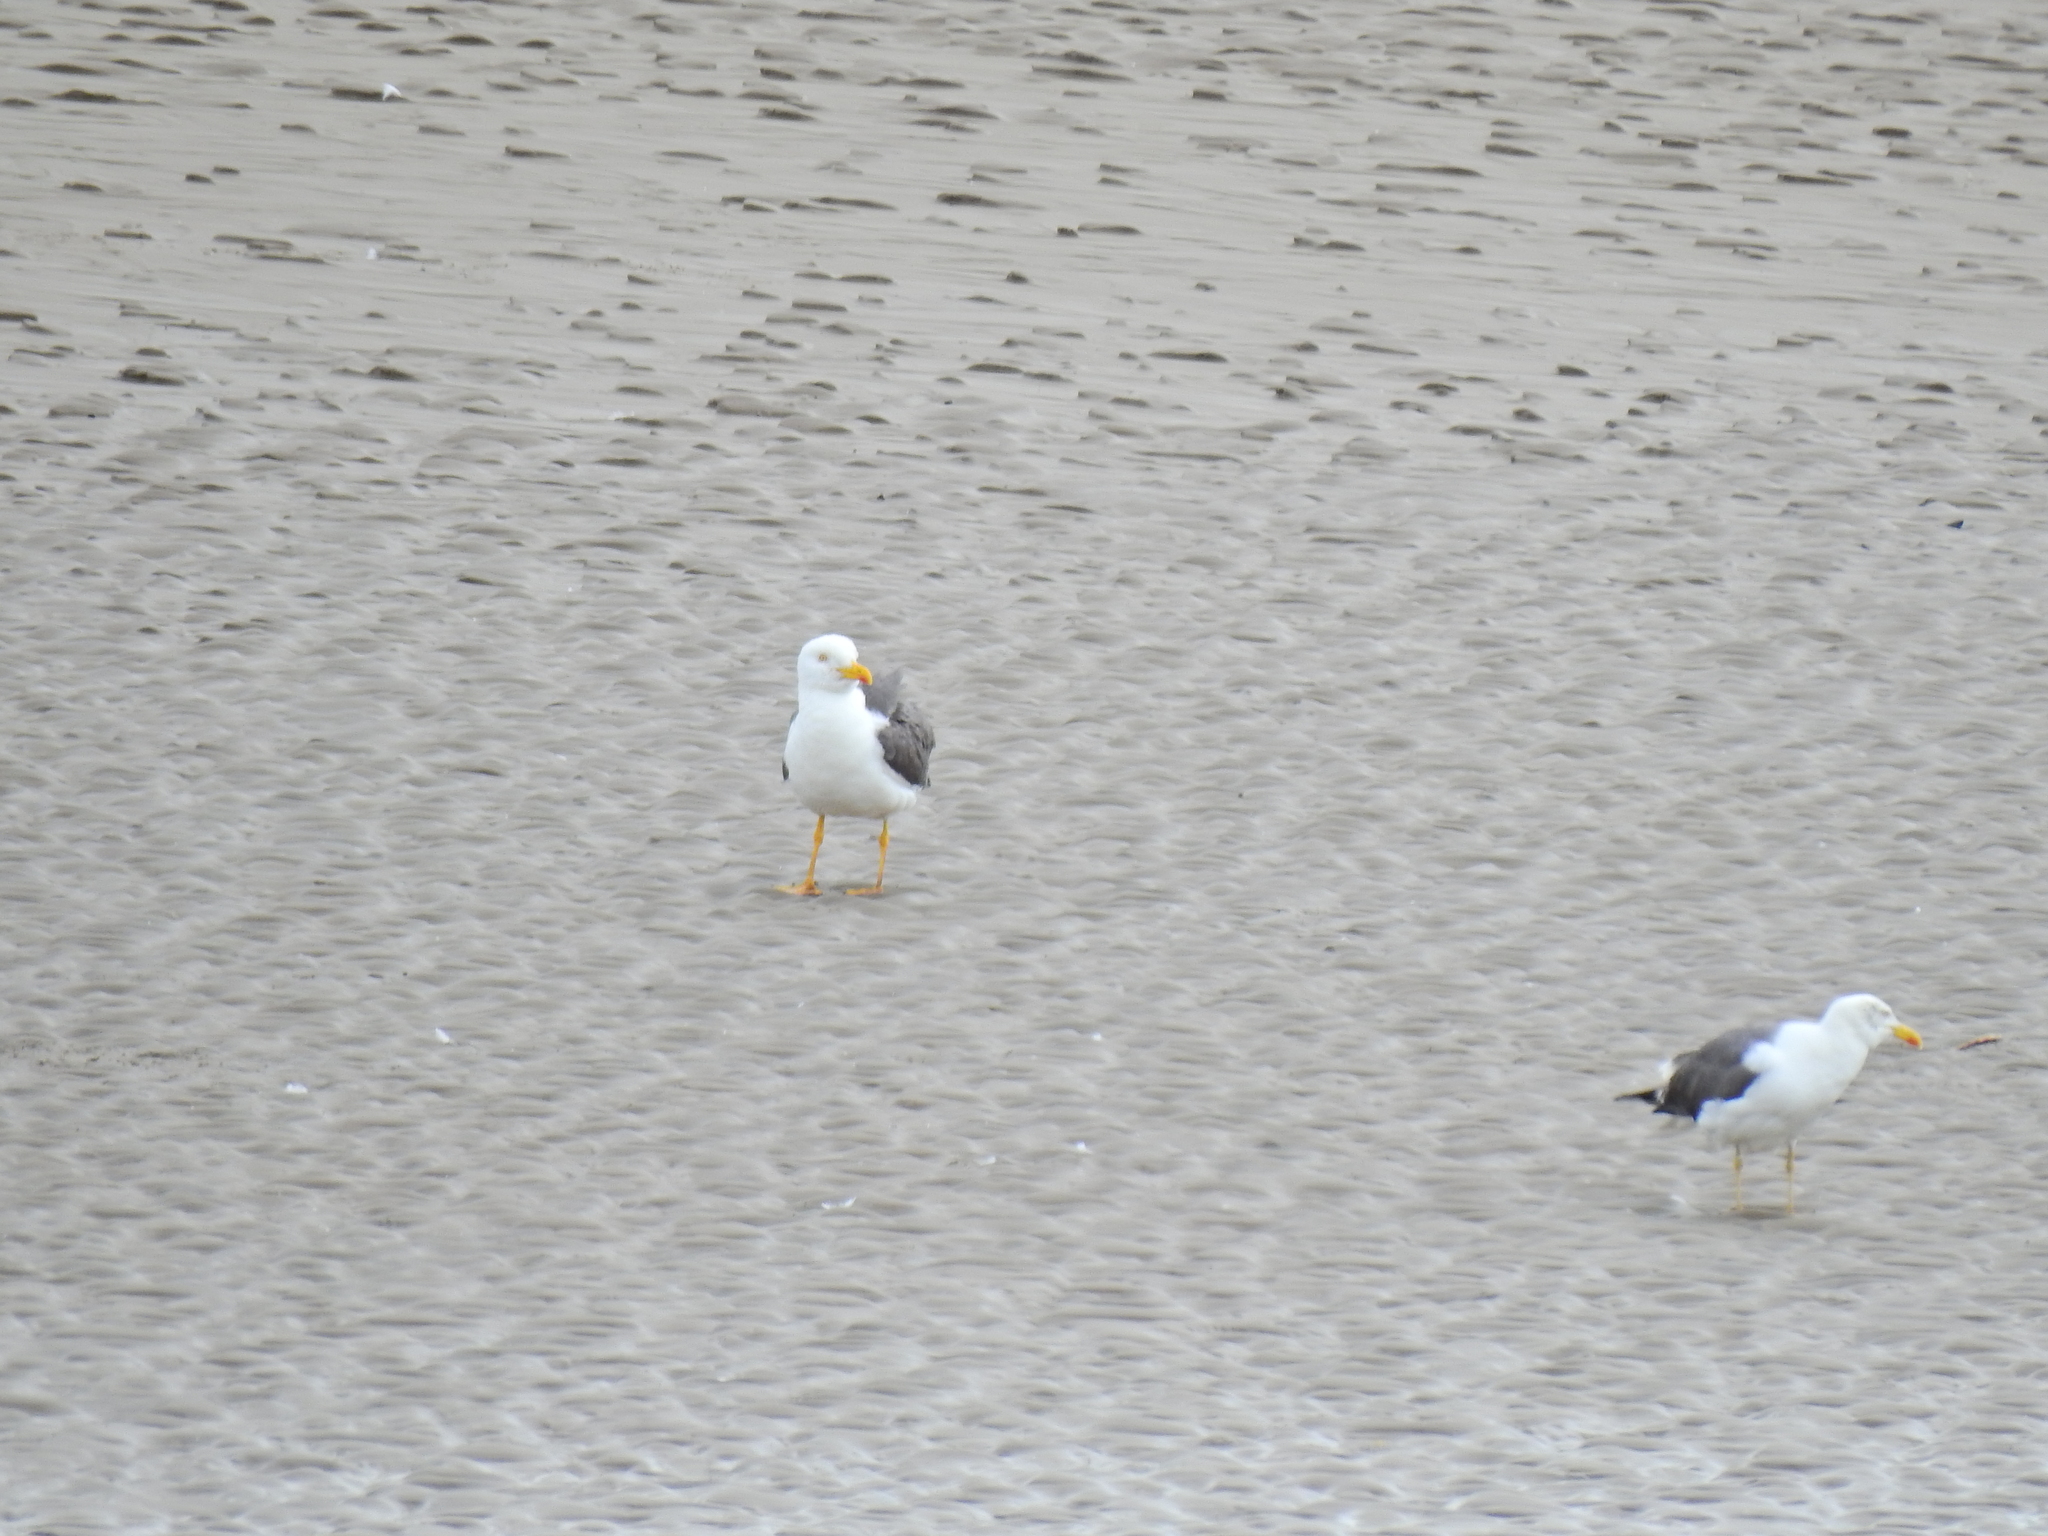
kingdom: Animalia
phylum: Chordata
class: Aves
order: Charadriiformes
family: Laridae
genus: Larus
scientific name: Larus fuscus
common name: Lesser black-backed gull
